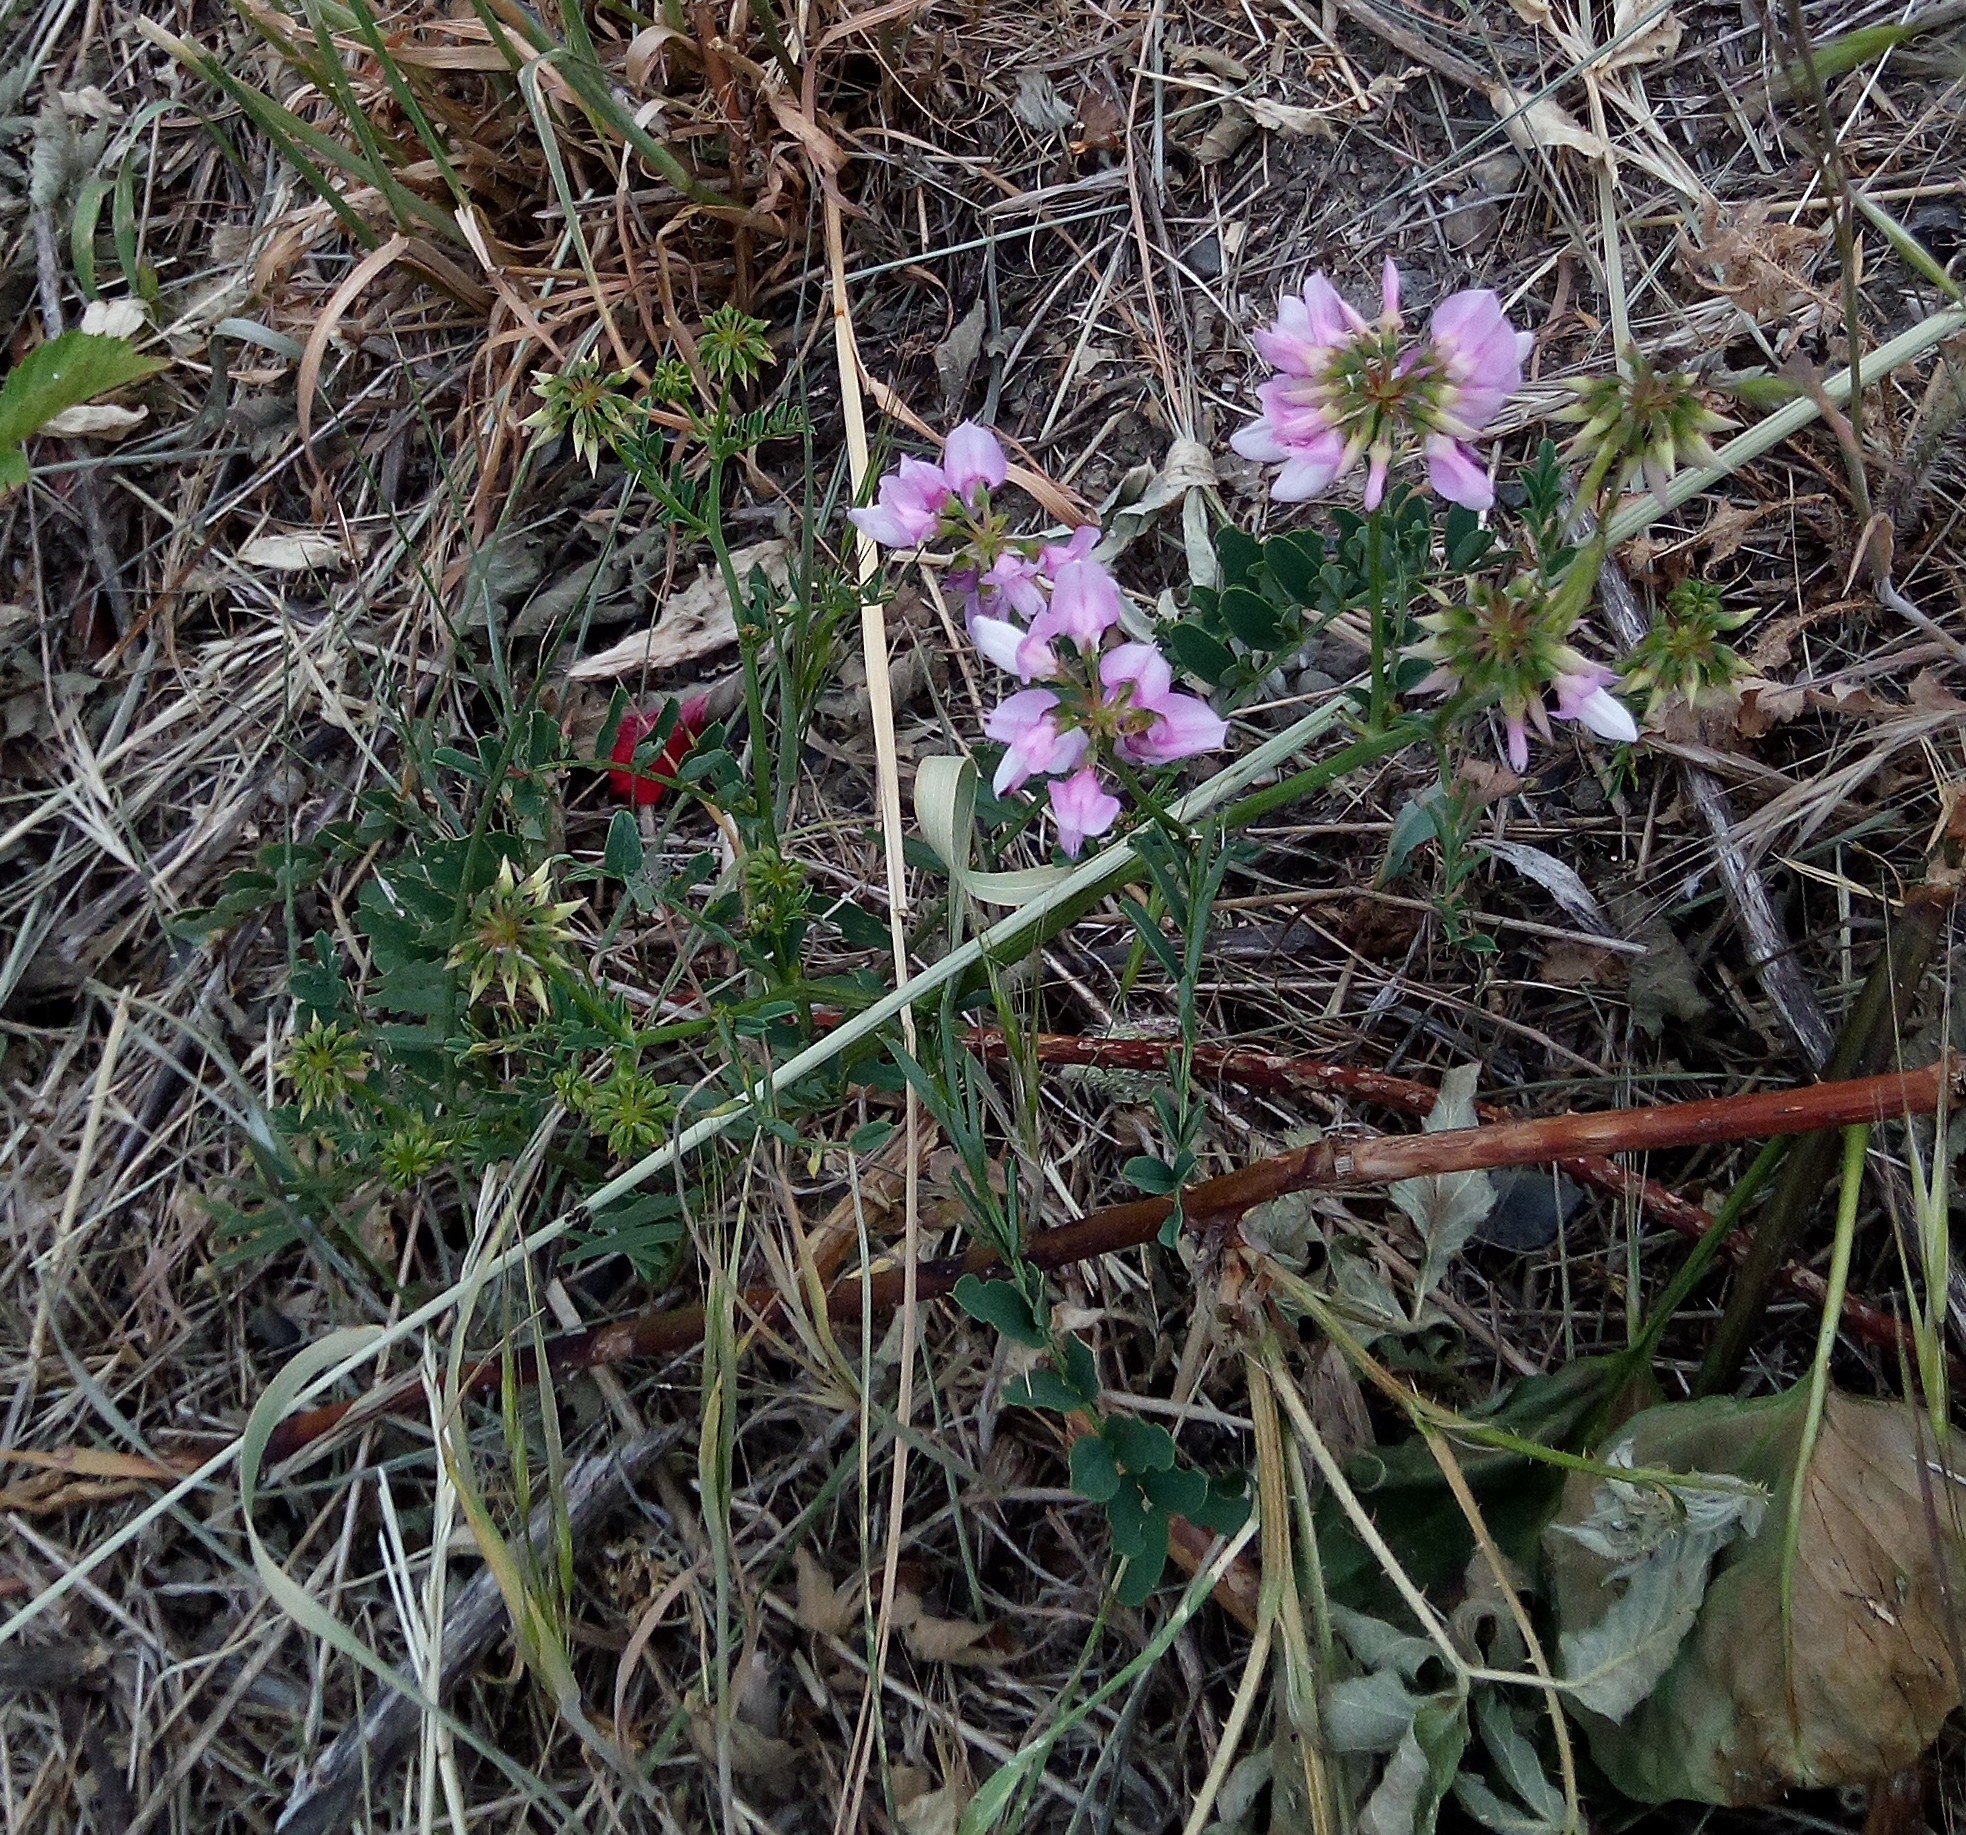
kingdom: Plantae
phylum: Tracheophyta
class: Magnoliopsida
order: Fabales
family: Fabaceae
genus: Coronilla
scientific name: Coronilla varia
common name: Crownvetch
